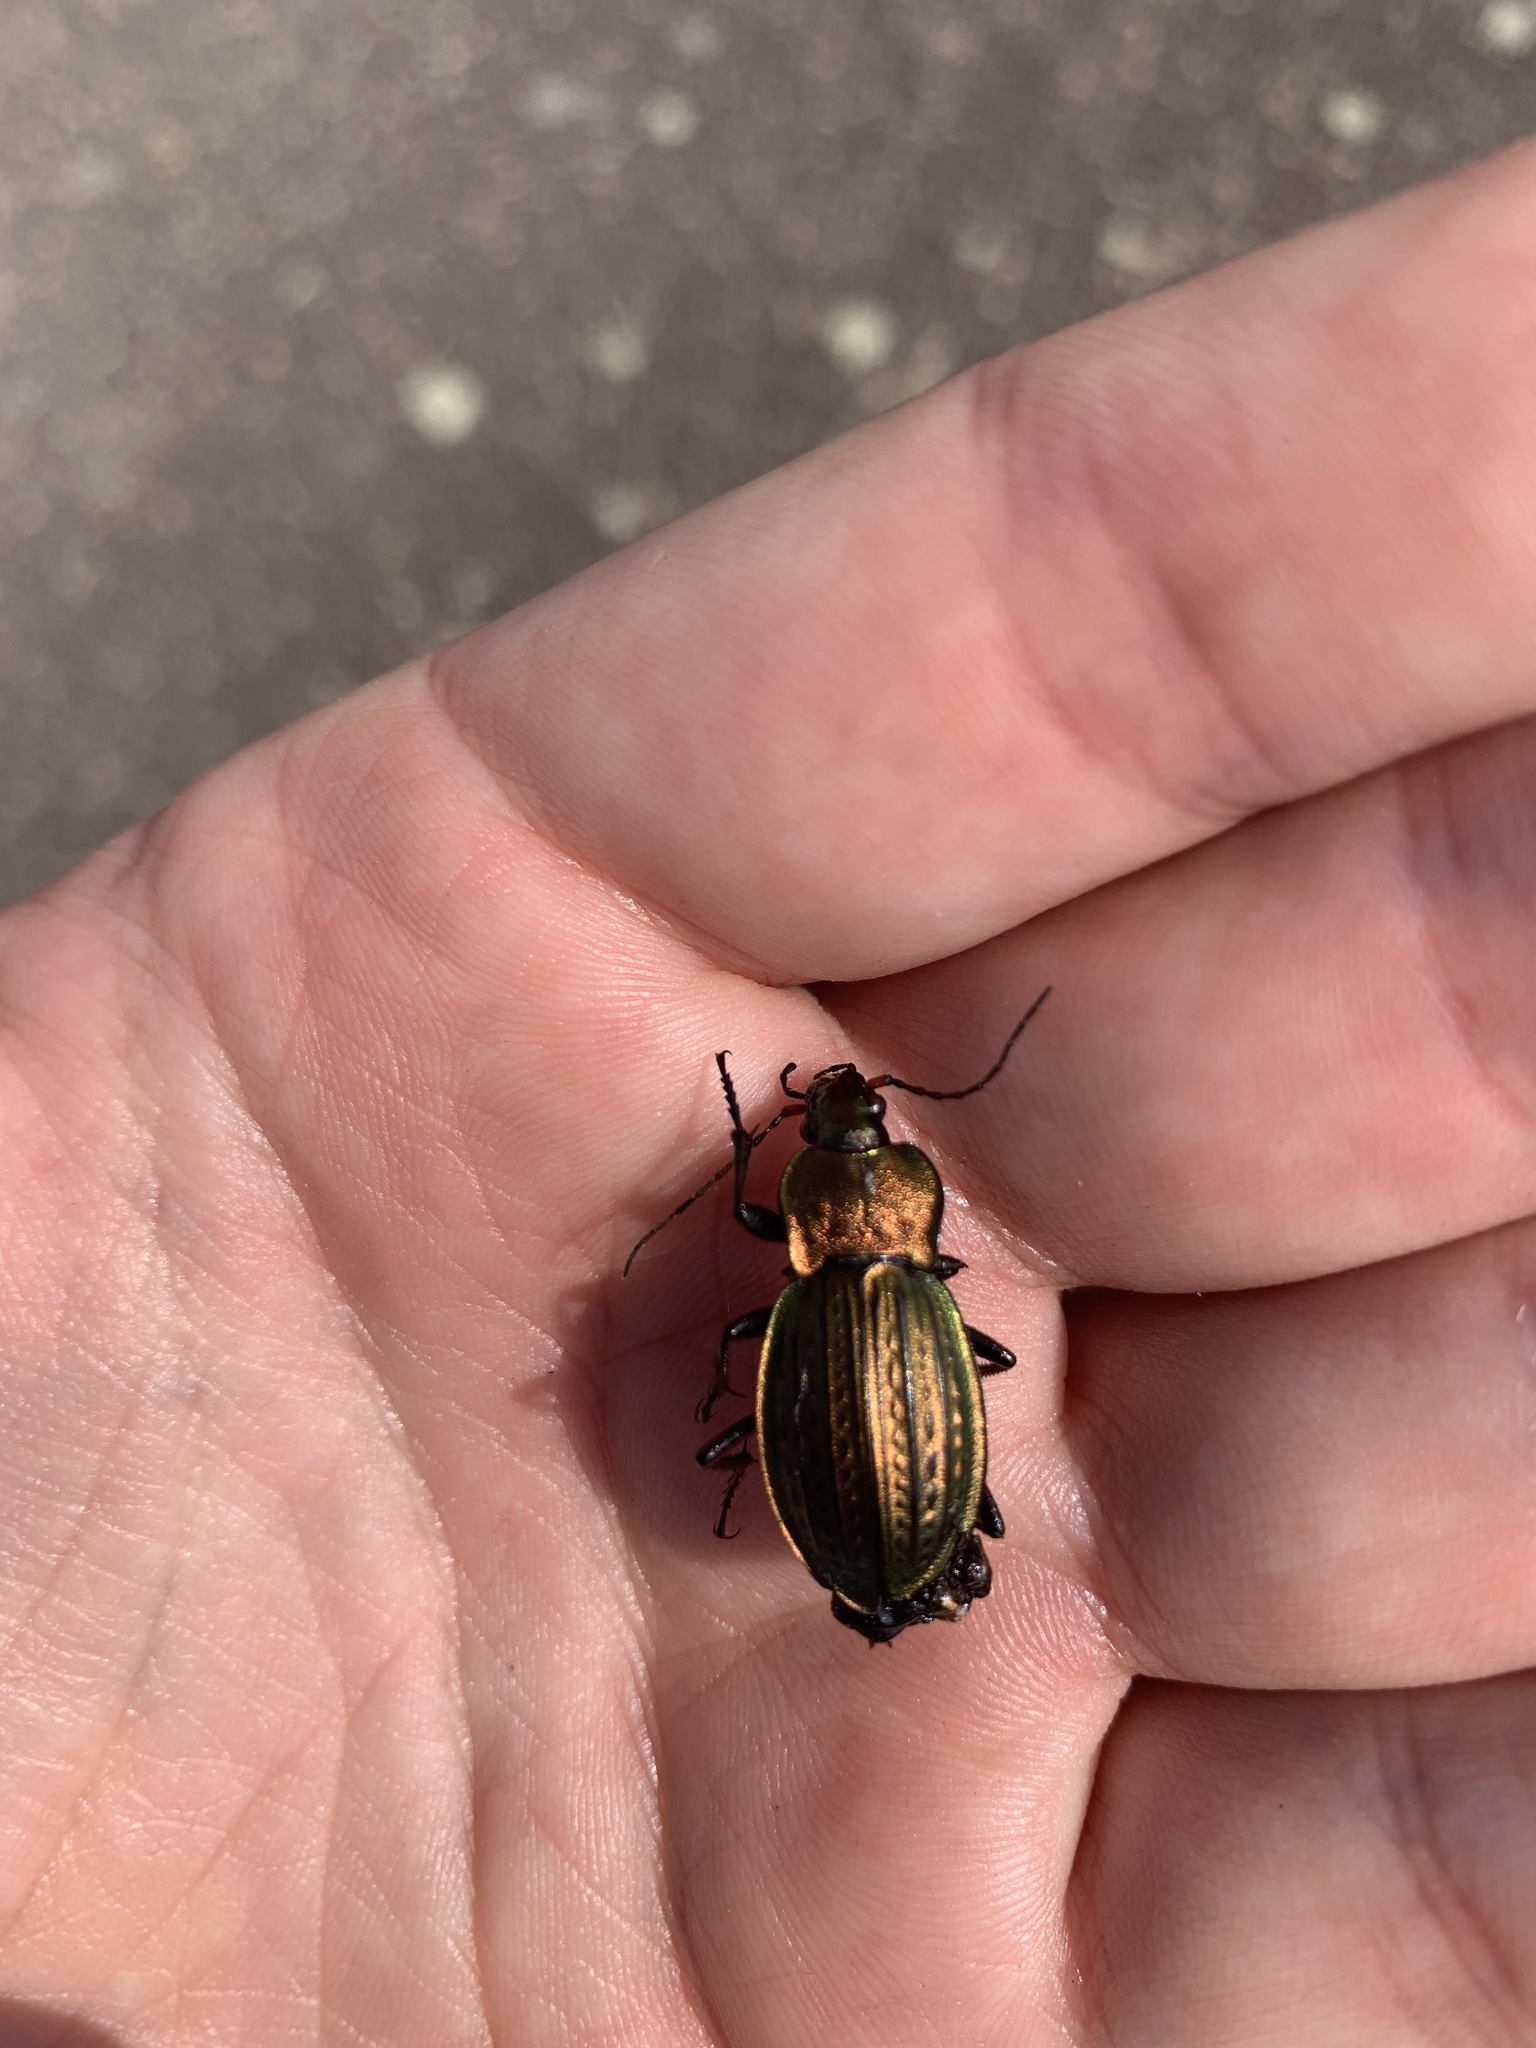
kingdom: Animalia
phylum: Arthropoda
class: Insecta
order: Coleoptera
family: Carabidae
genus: Carabus
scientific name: Carabus cancellatus
